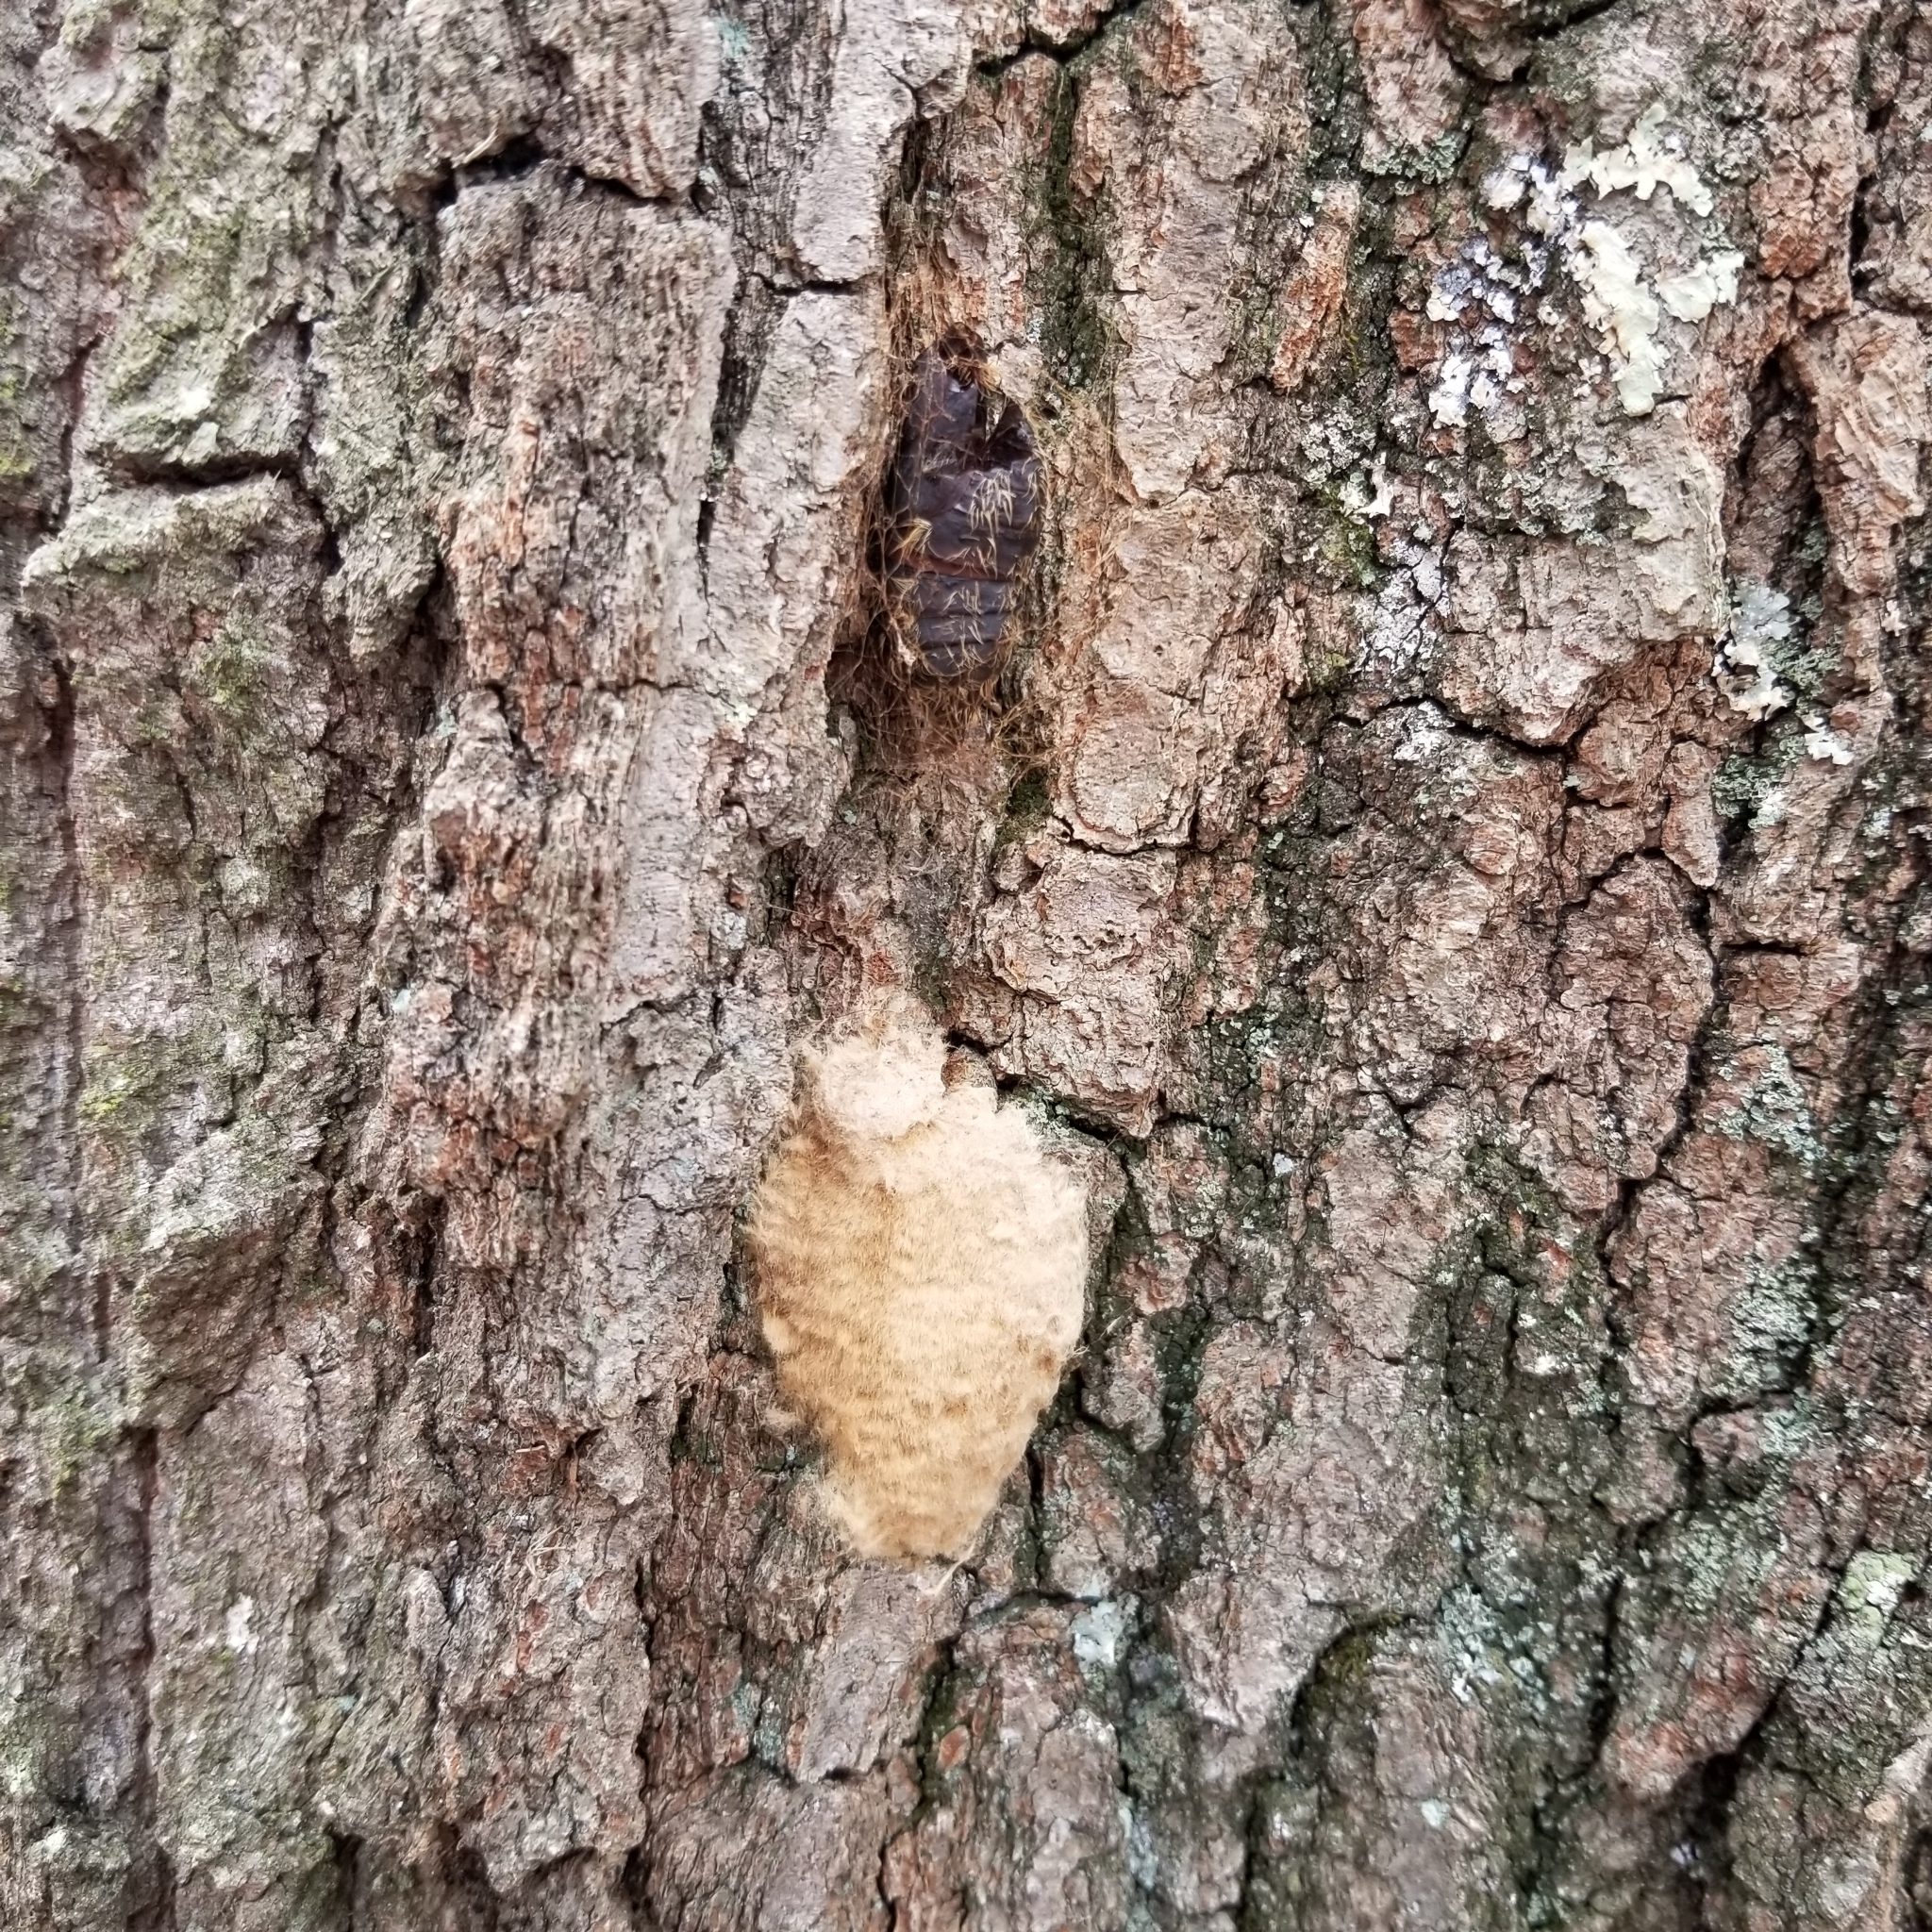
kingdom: Animalia
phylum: Arthropoda
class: Insecta
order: Lepidoptera
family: Erebidae
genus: Lymantria
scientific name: Lymantria dispar
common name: Gypsy moth
